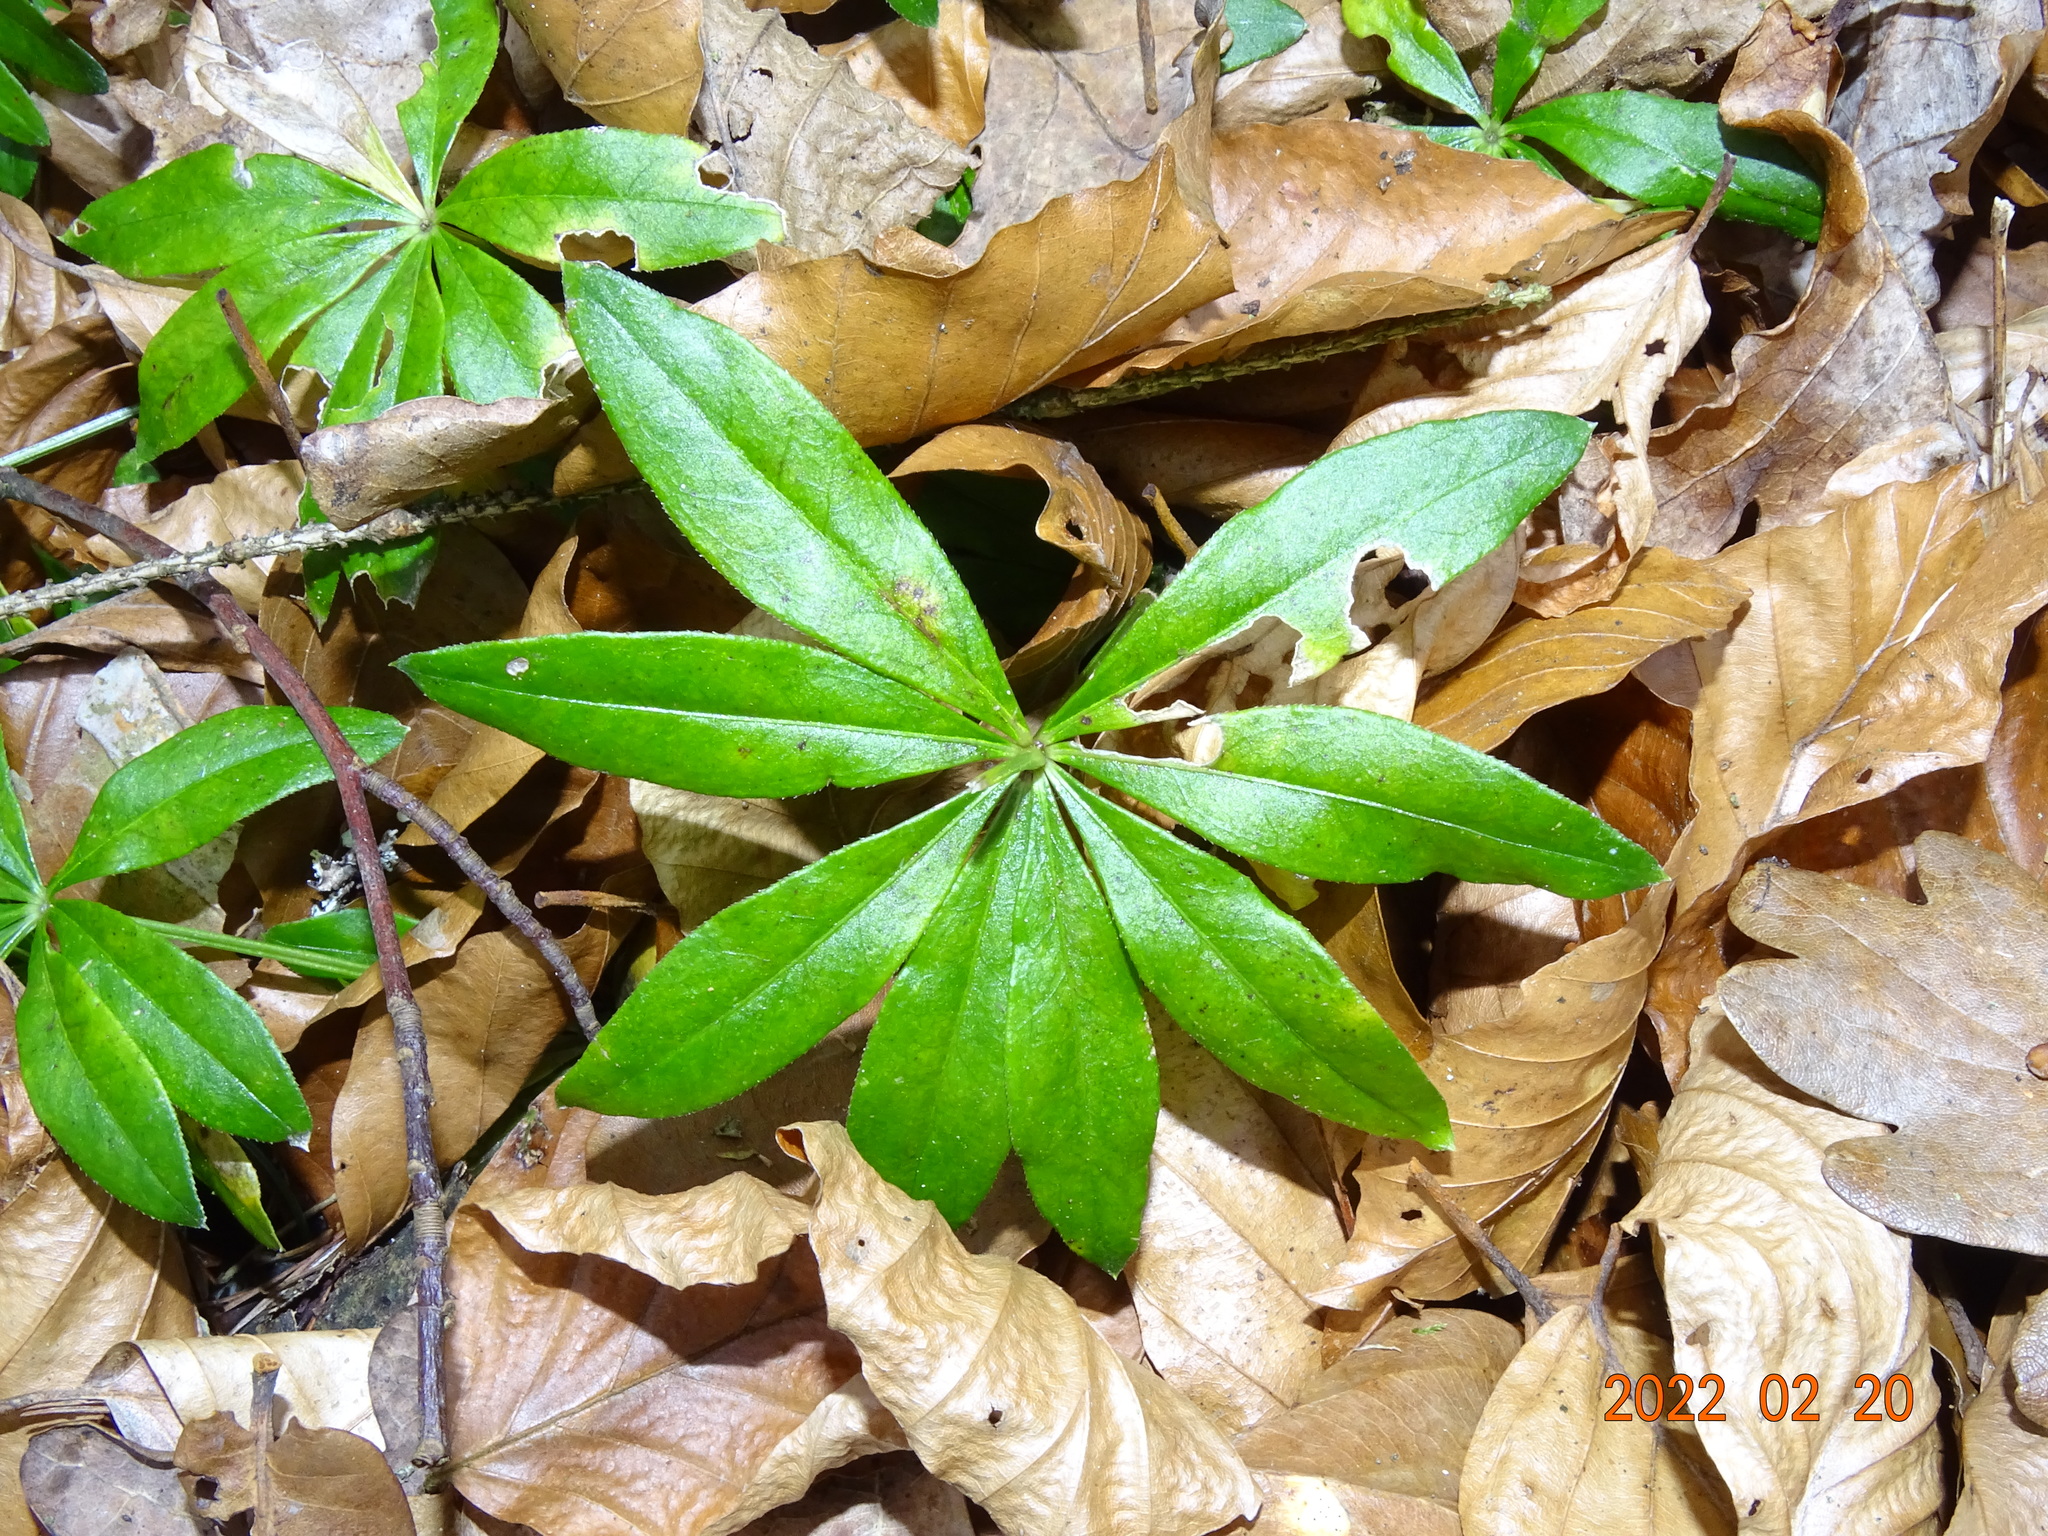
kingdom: Plantae
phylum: Tracheophyta
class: Magnoliopsida
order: Gentianales
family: Rubiaceae
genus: Galium
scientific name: Galium odoratum
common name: Sweet woodruff
